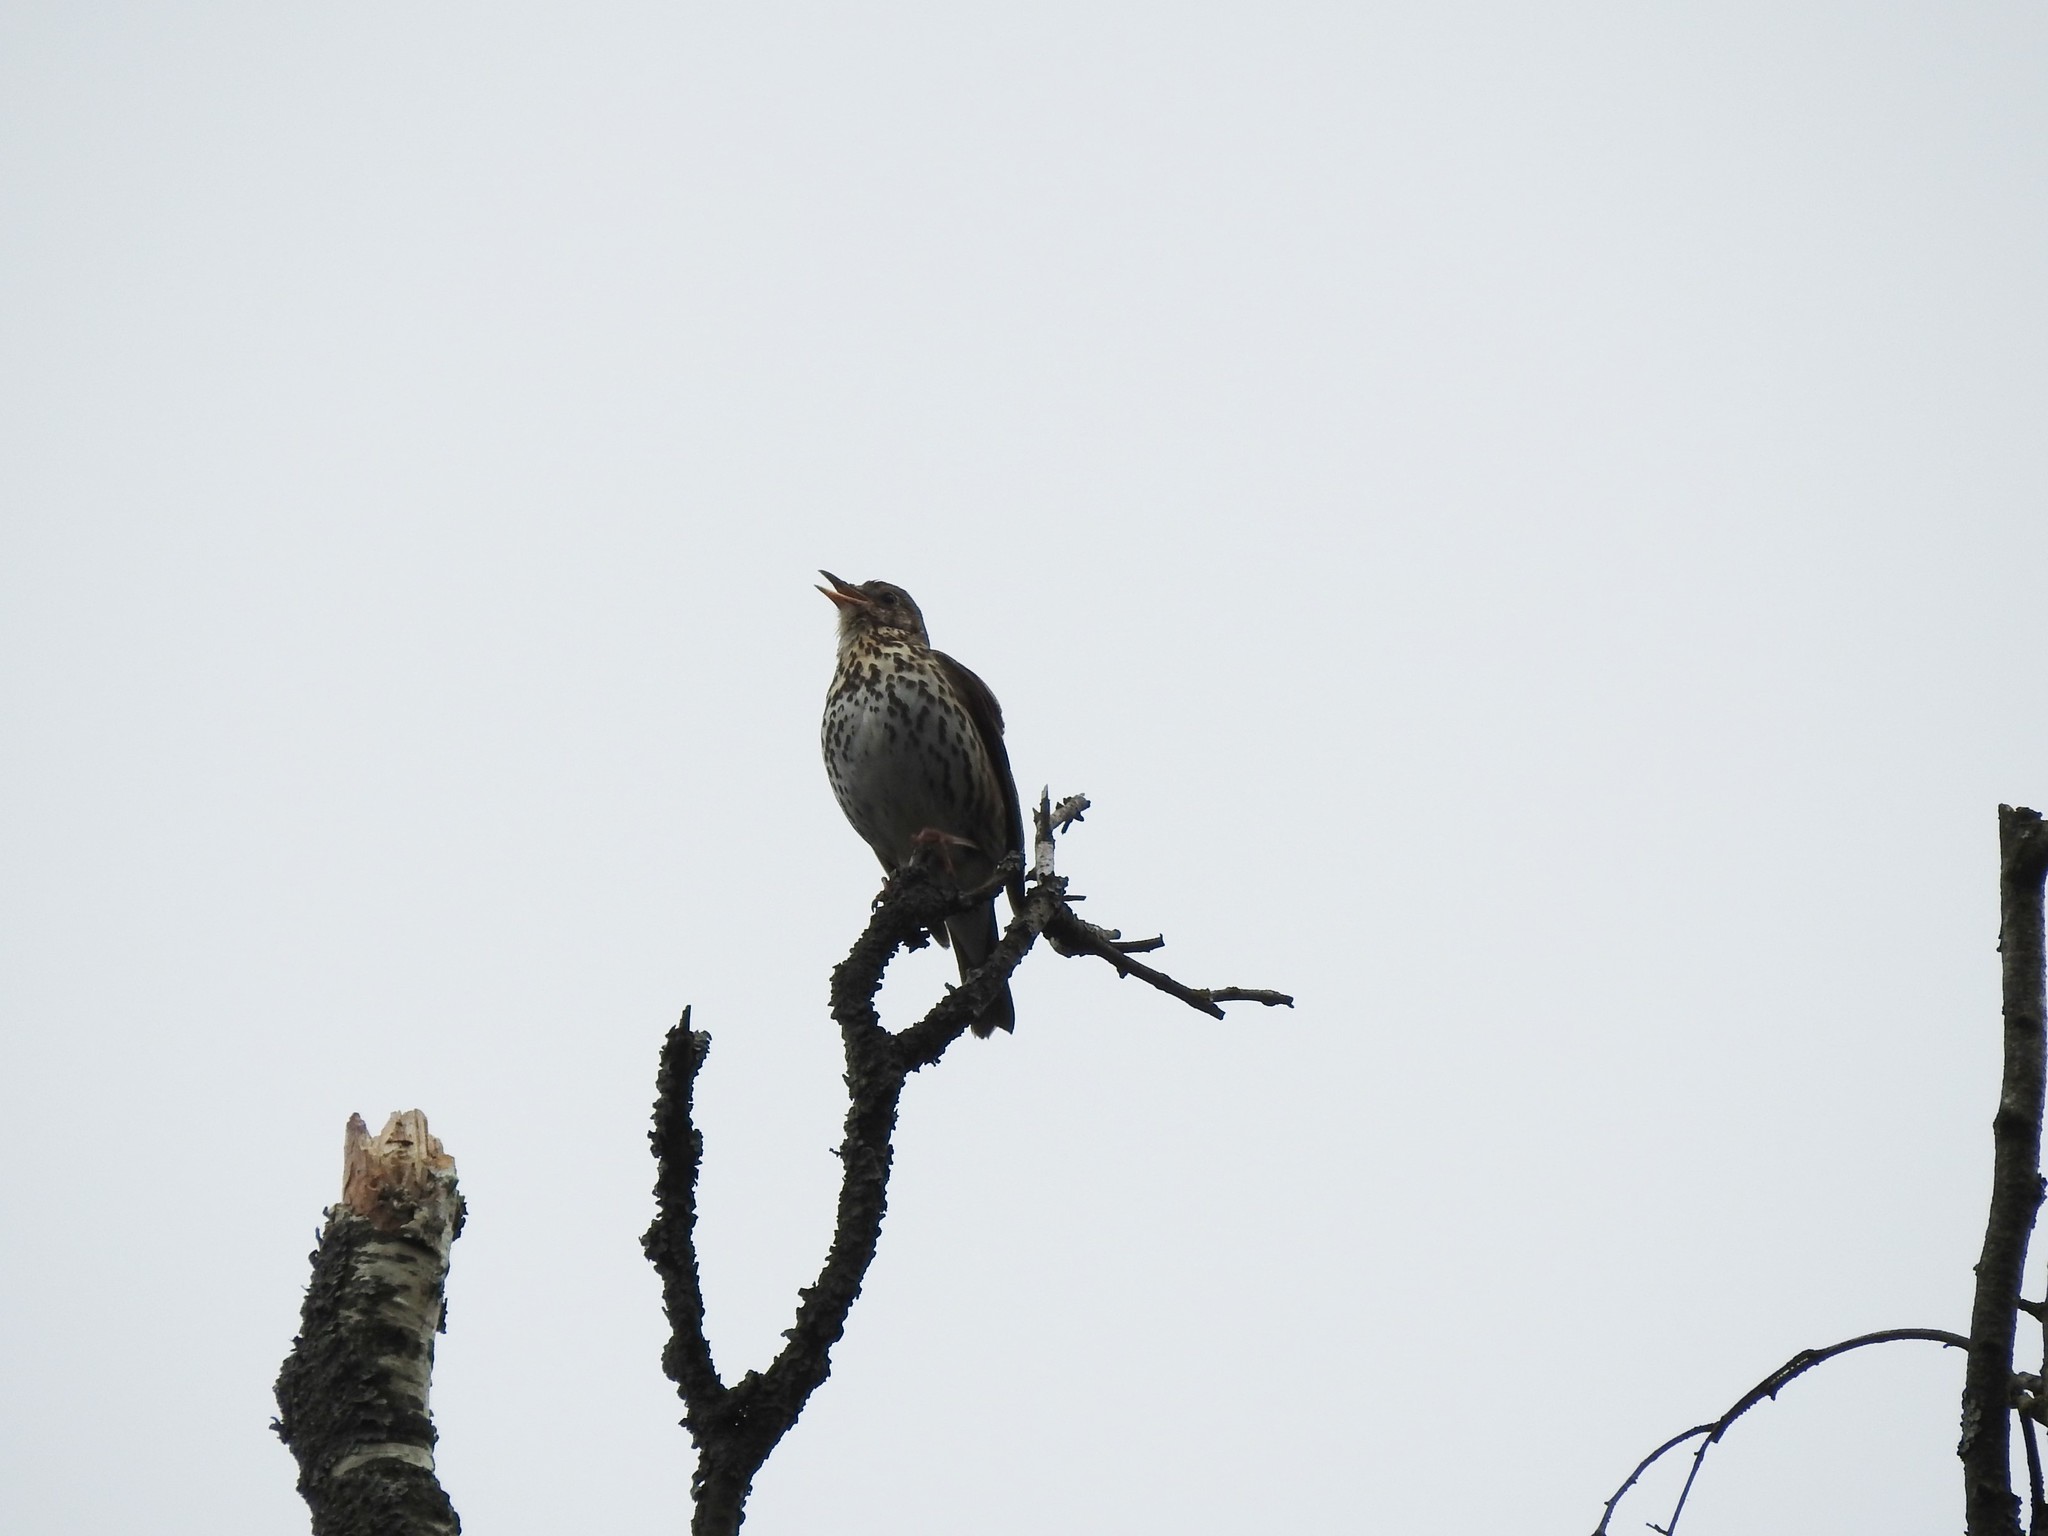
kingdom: Animalia
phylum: Chordata
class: Aves
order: Passeriformes
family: Turdidae
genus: Turdus
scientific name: Turdus philomelos
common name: Song thrush
